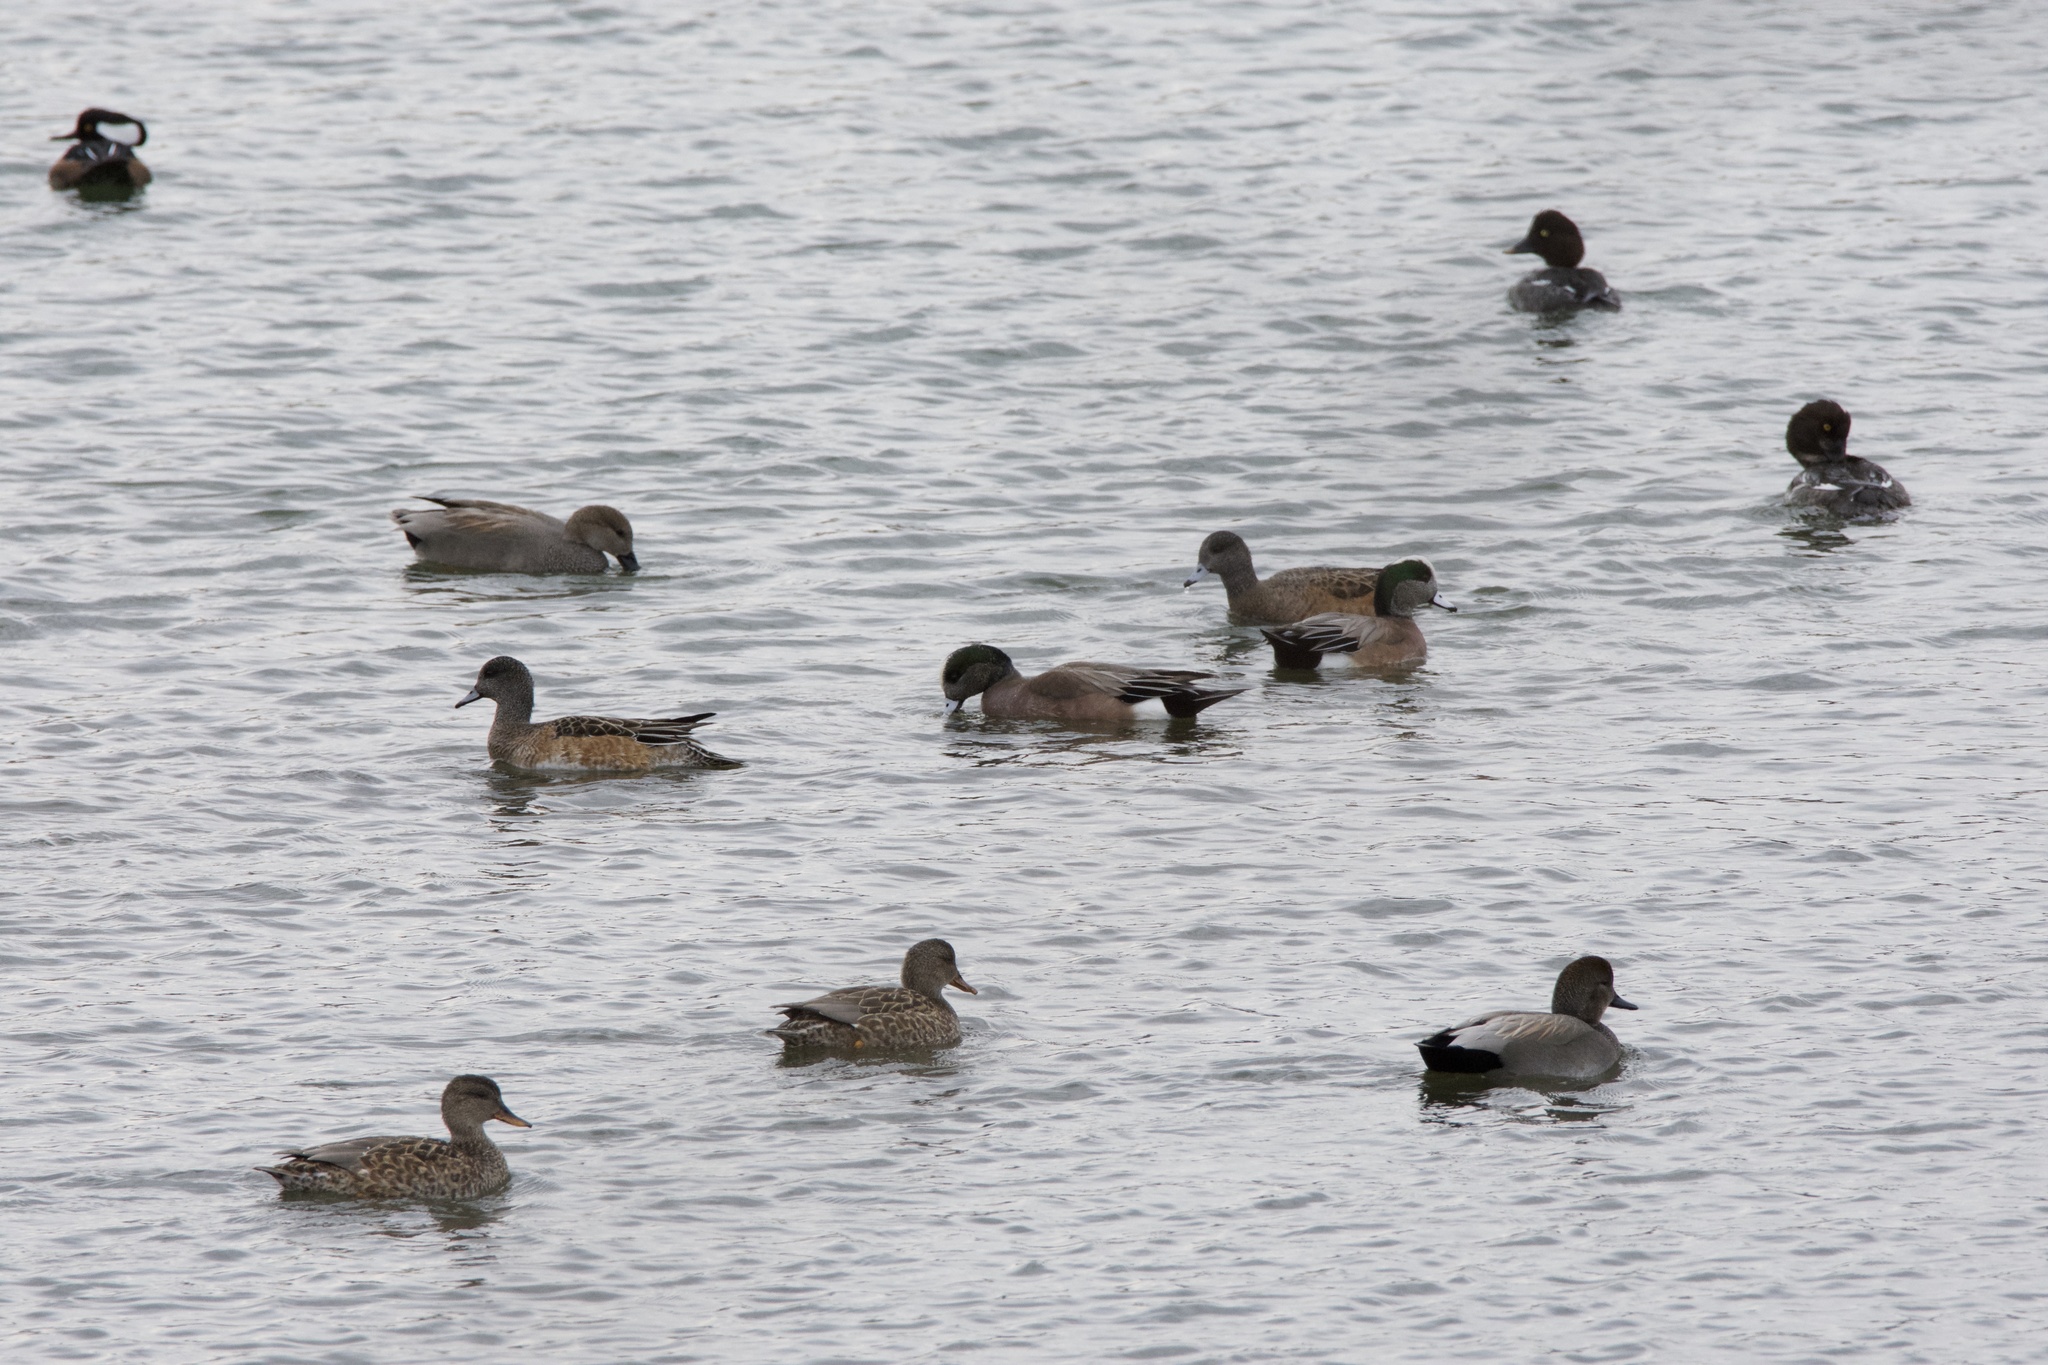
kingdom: Animalia
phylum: Chordata
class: Aves
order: Anseriformes
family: Anatidae
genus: Mareca
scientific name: Mareca strepera
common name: Gadwall
